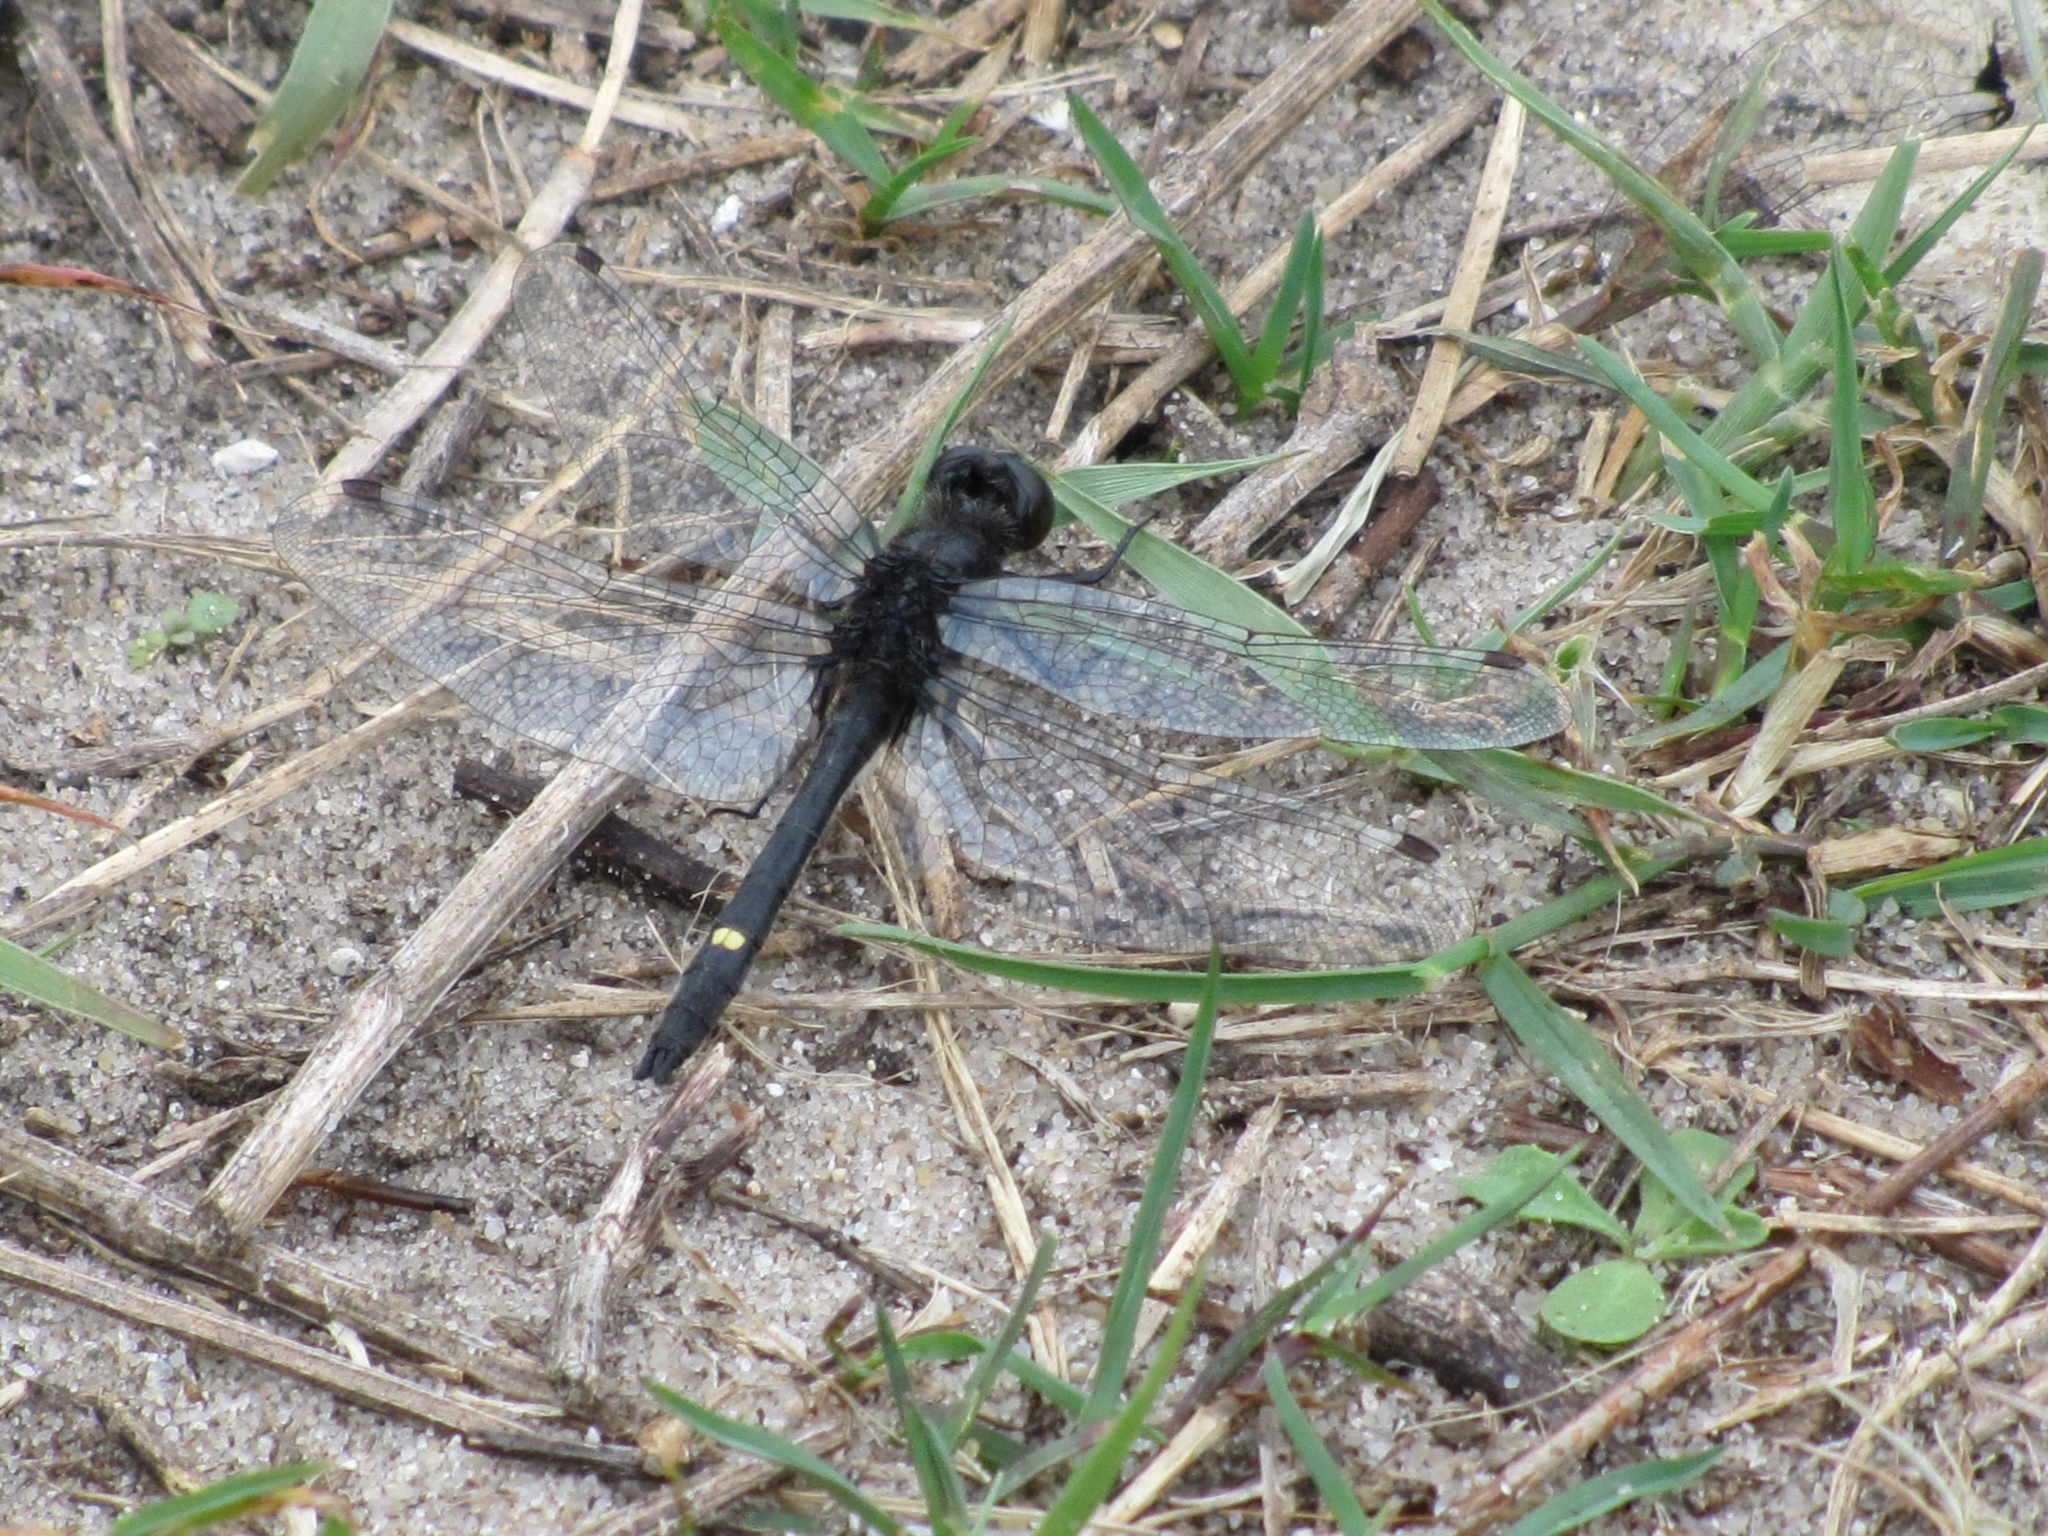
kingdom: Animalia
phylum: Arthropoda
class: Insecta
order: Odonata
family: Libellulidae
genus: Leucorrhinia
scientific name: Leucorrhinia intacta
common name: Dot-tailed whiteface
